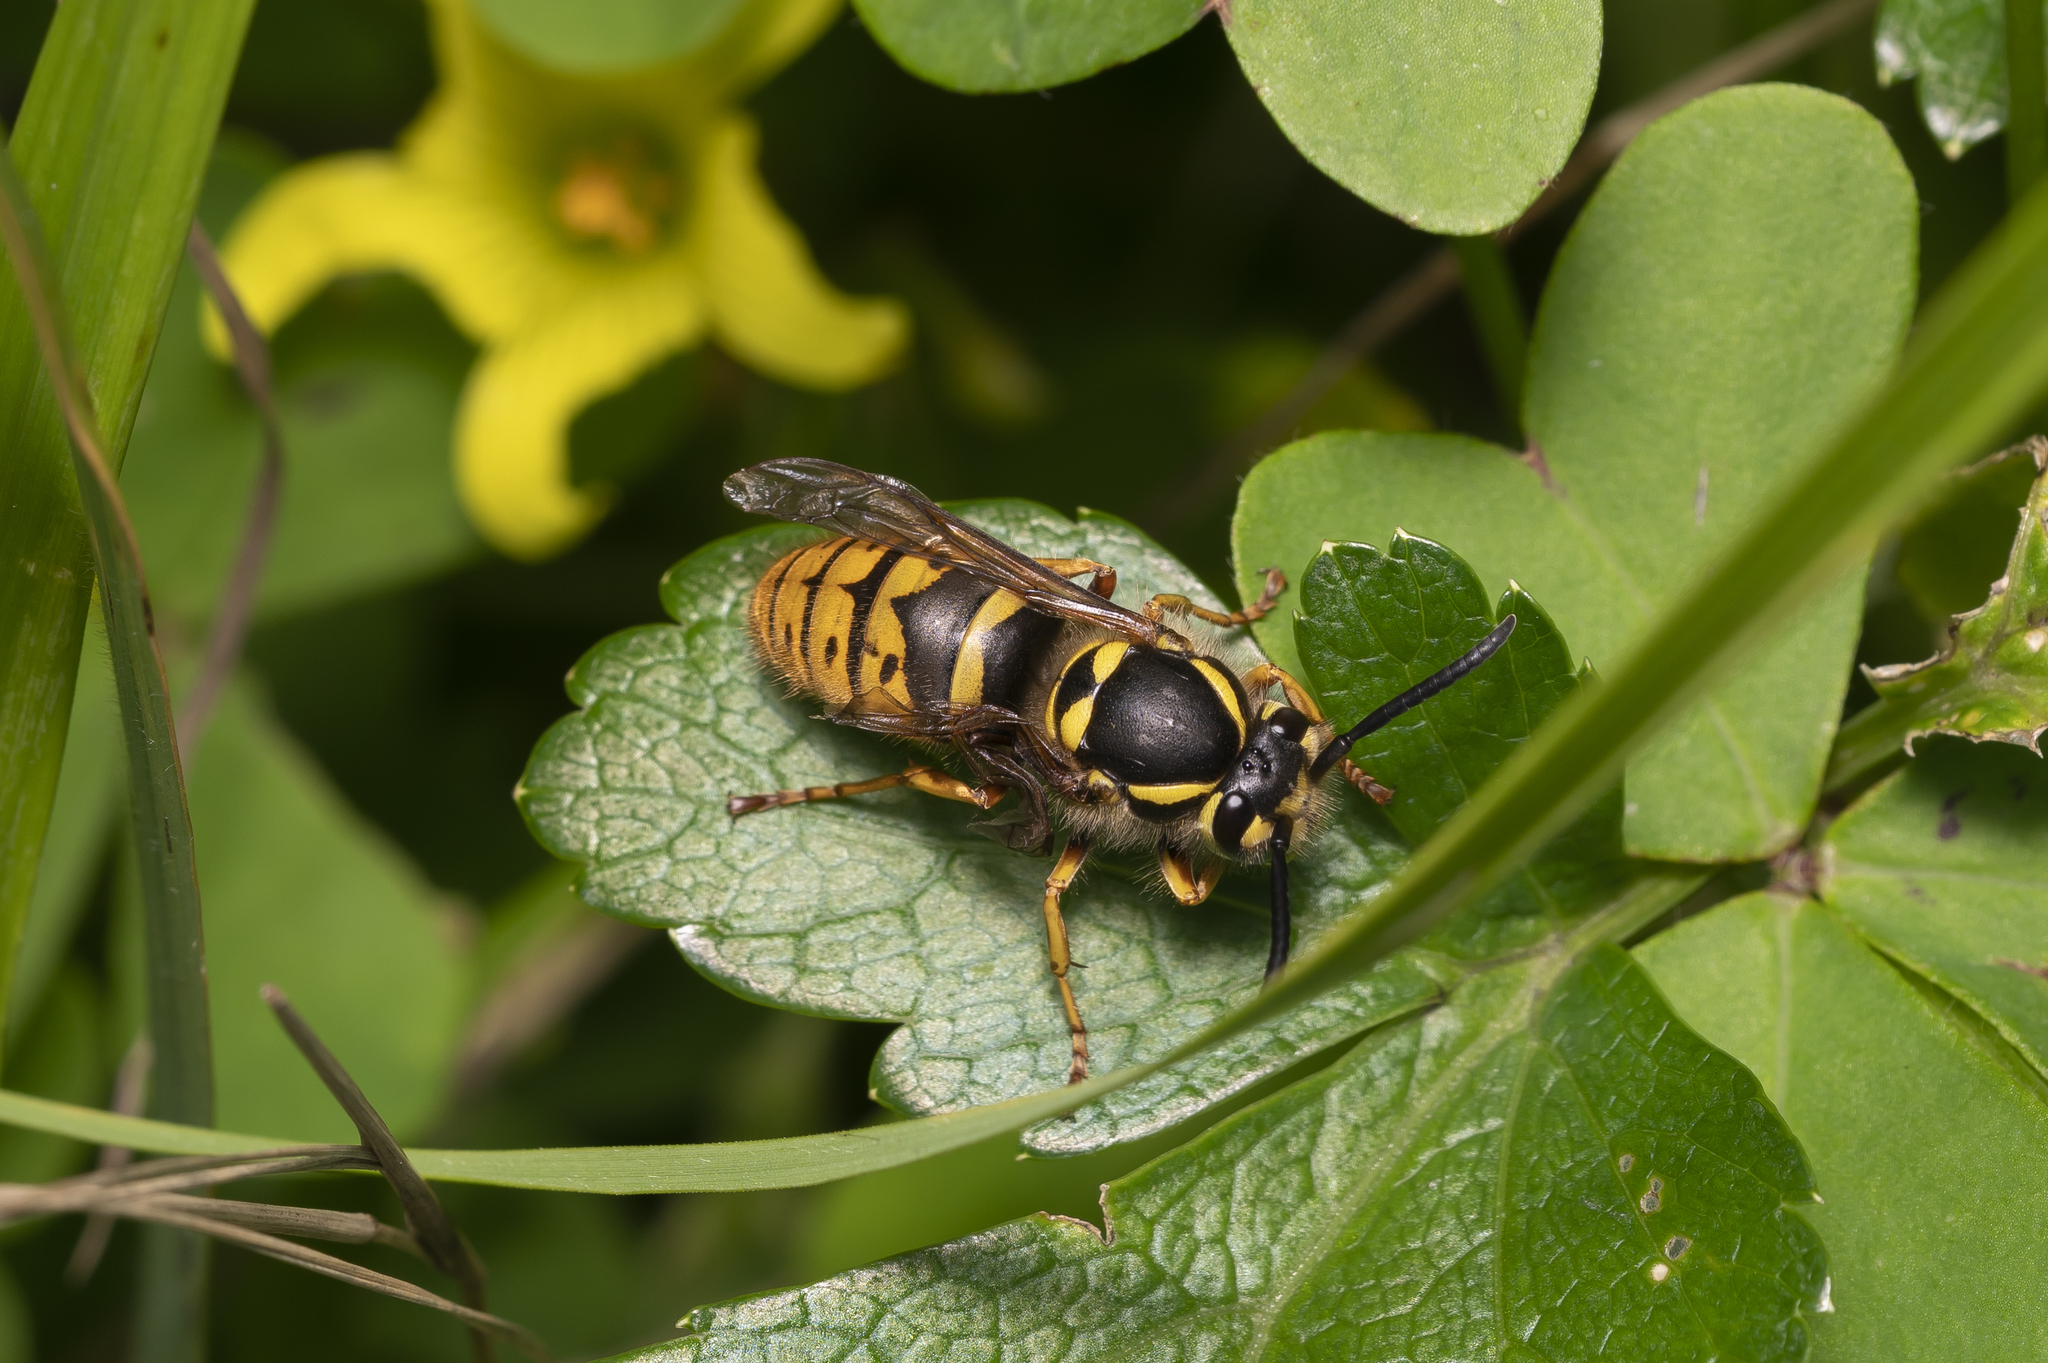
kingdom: Animalia
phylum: Arthropoda
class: Insecta
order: Hymenoptera
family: Vespidae
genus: Vespula
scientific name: Vespula vulgaris
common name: Common wasp
